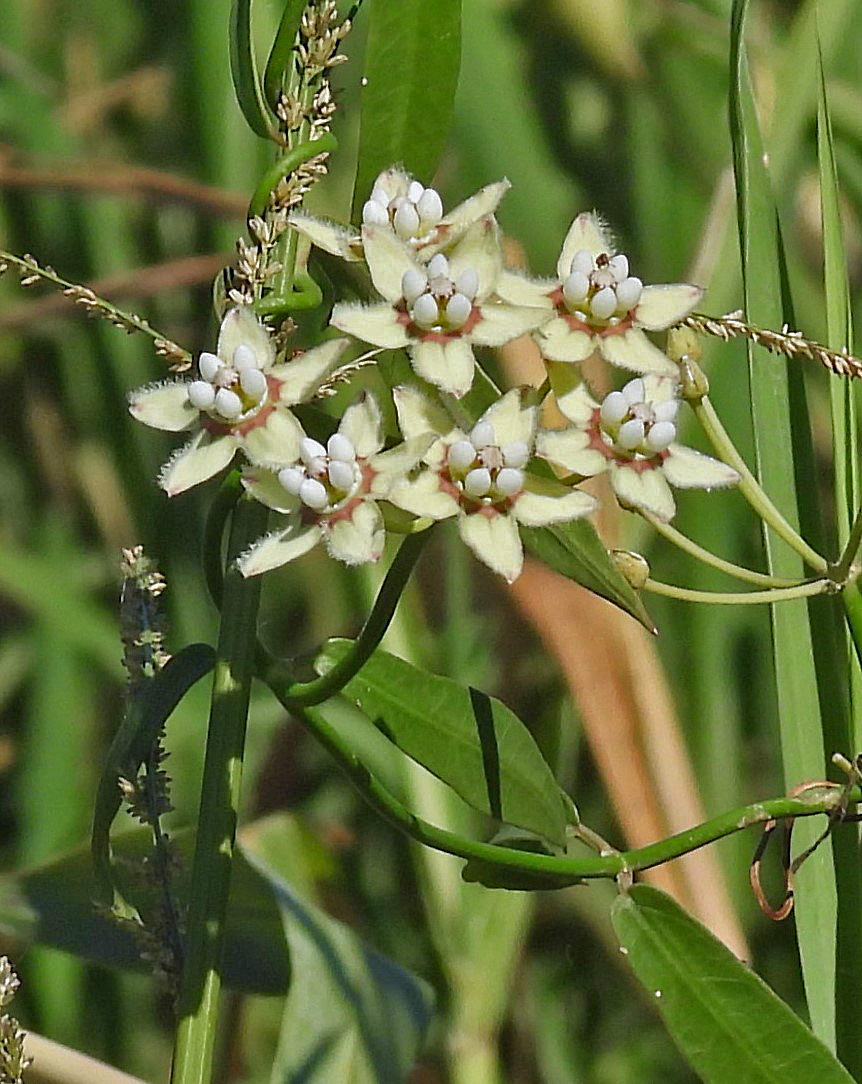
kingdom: Plantae
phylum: Tracheophyta
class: Magnoliopsida
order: Gentianales
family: Apocynaceae
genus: Funastrum
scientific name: Funastrum clausum
